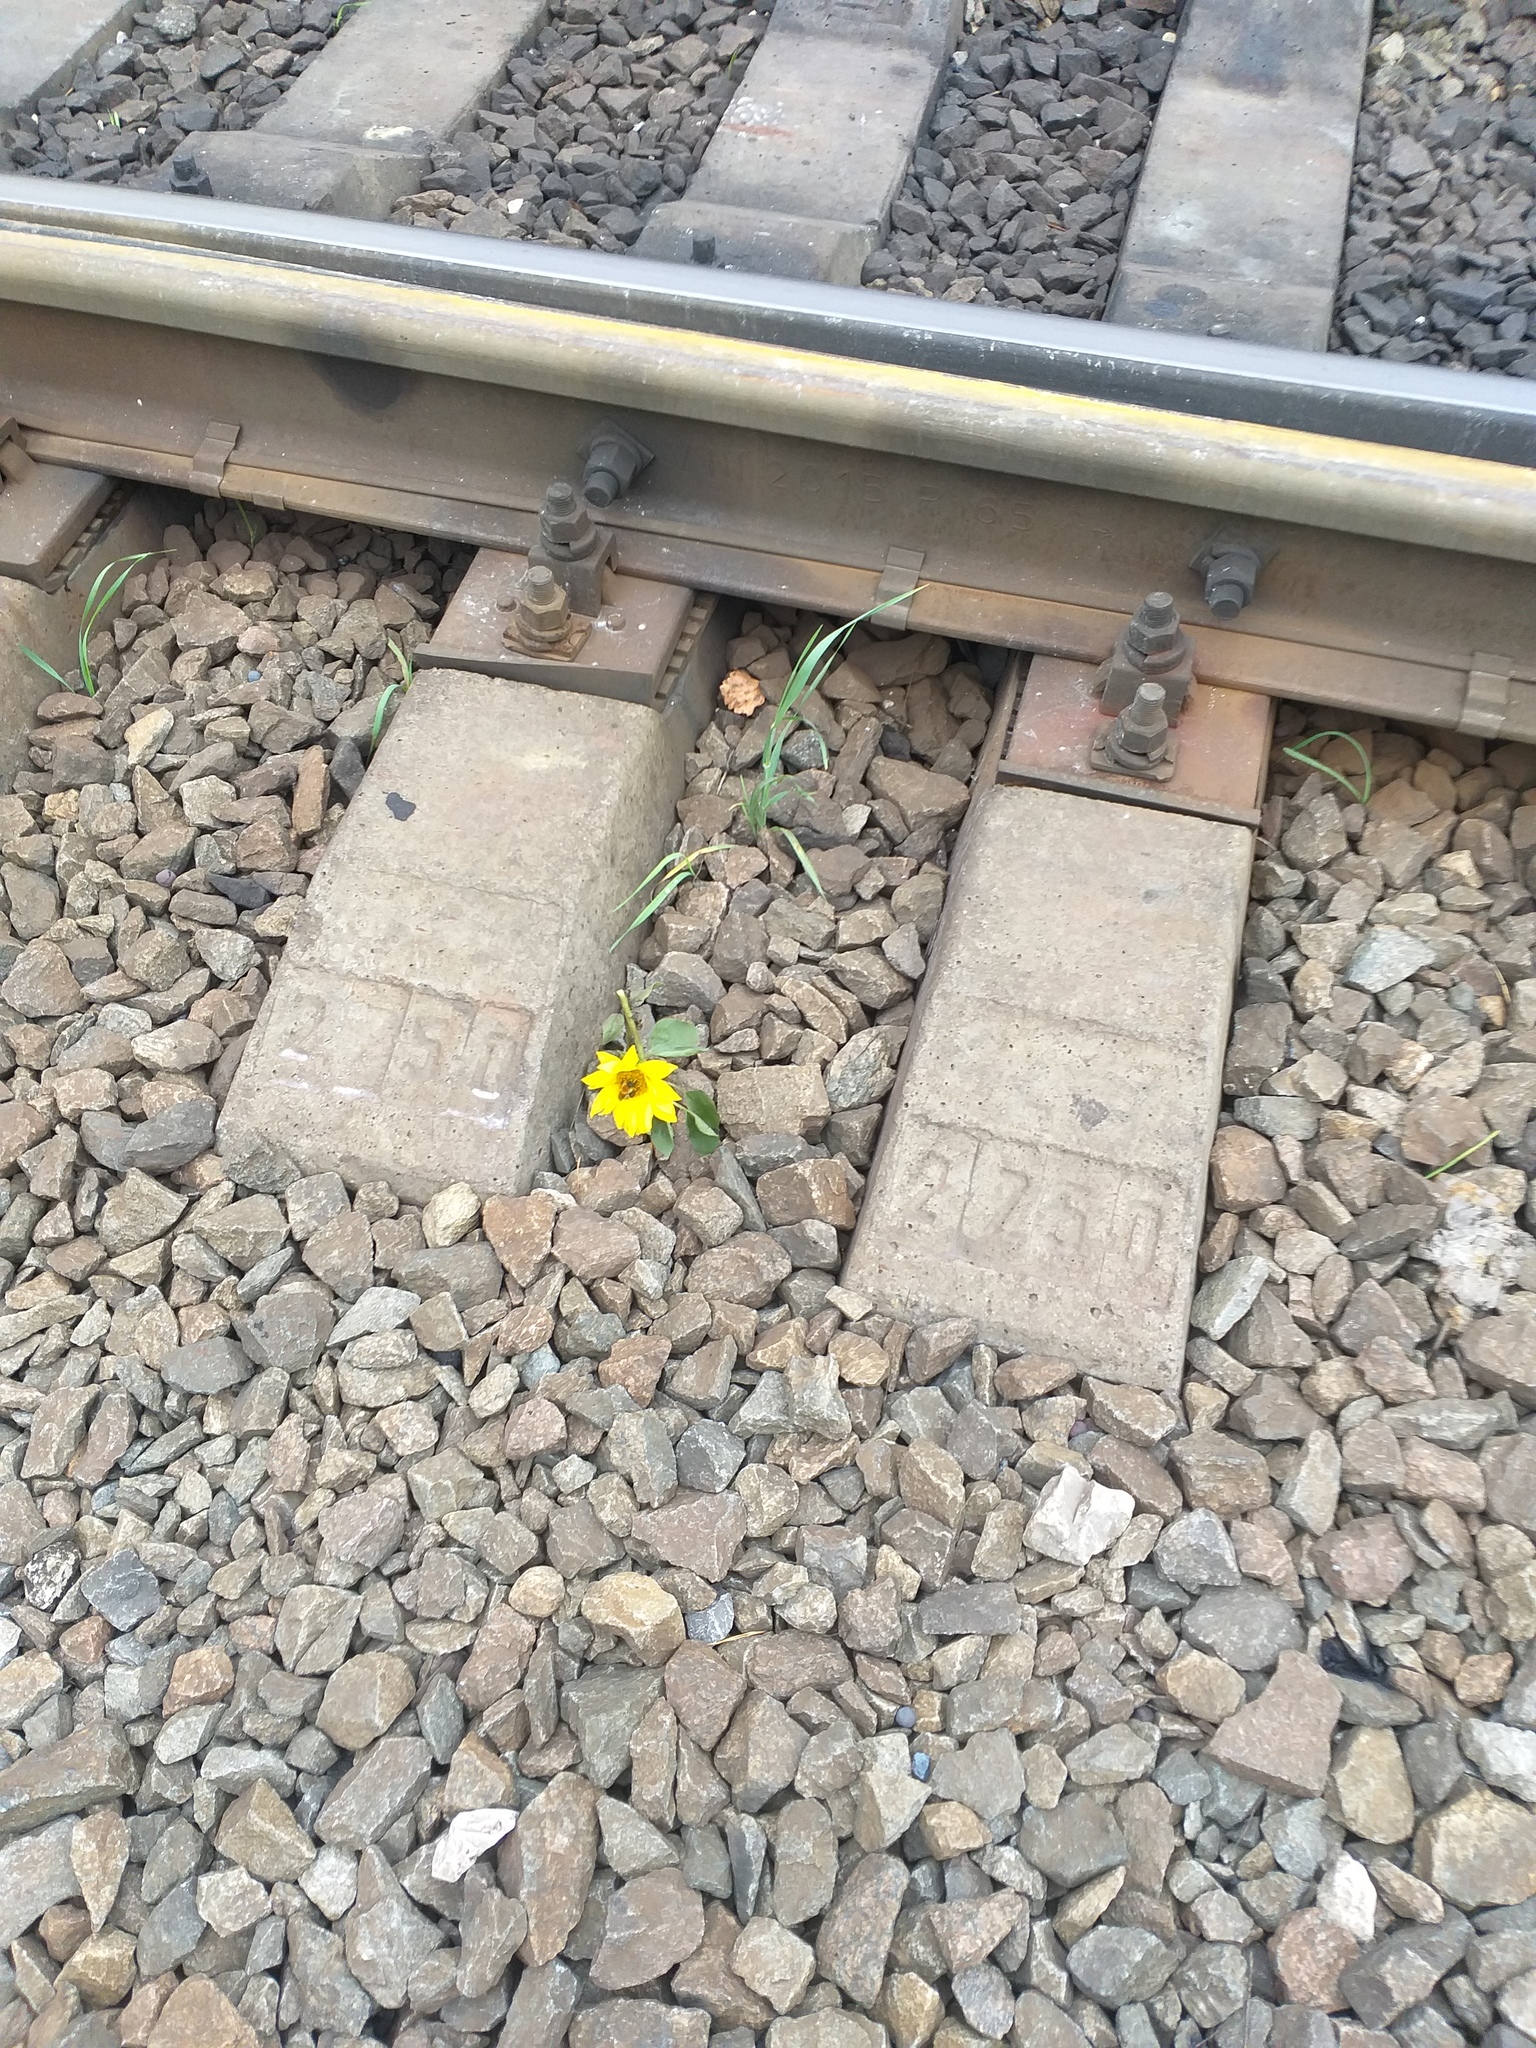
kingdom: Plantae
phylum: Tracheophyta
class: Magnoliopsida
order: Asterales
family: Asteraceae
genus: Helianthus
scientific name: Helianthus annuus
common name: Sunflower
